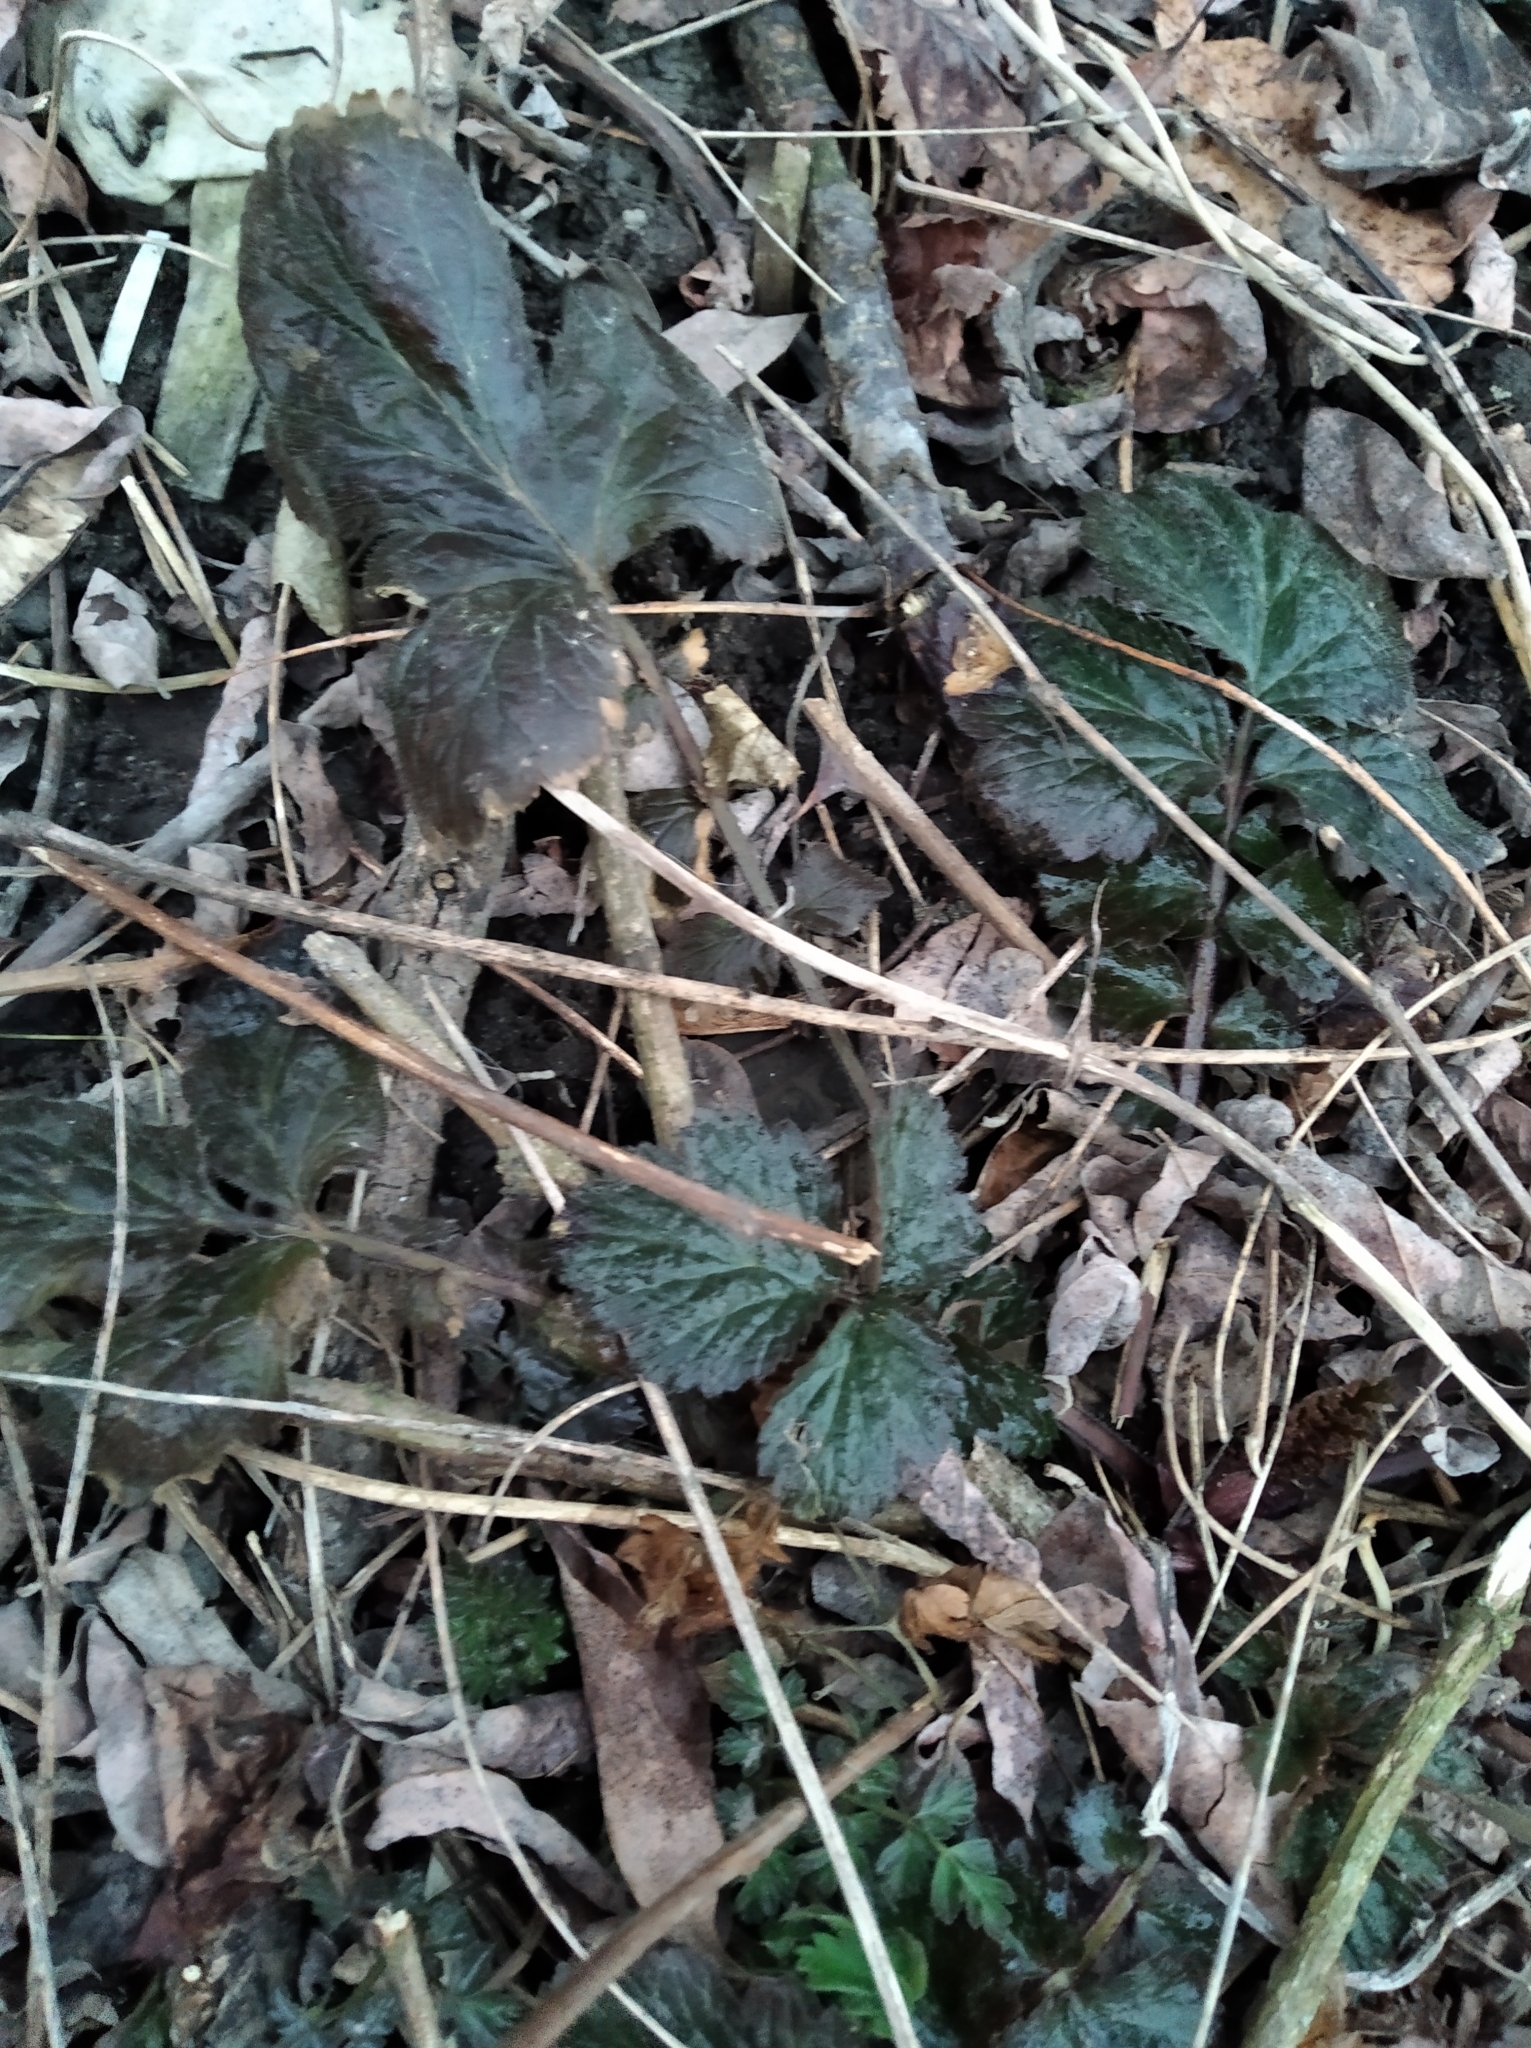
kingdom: Plantae
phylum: Tracheophyta
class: Magnoliopsida
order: Rosales
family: Rosaceae
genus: Geum
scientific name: Geum urbanum
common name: Wood avens
